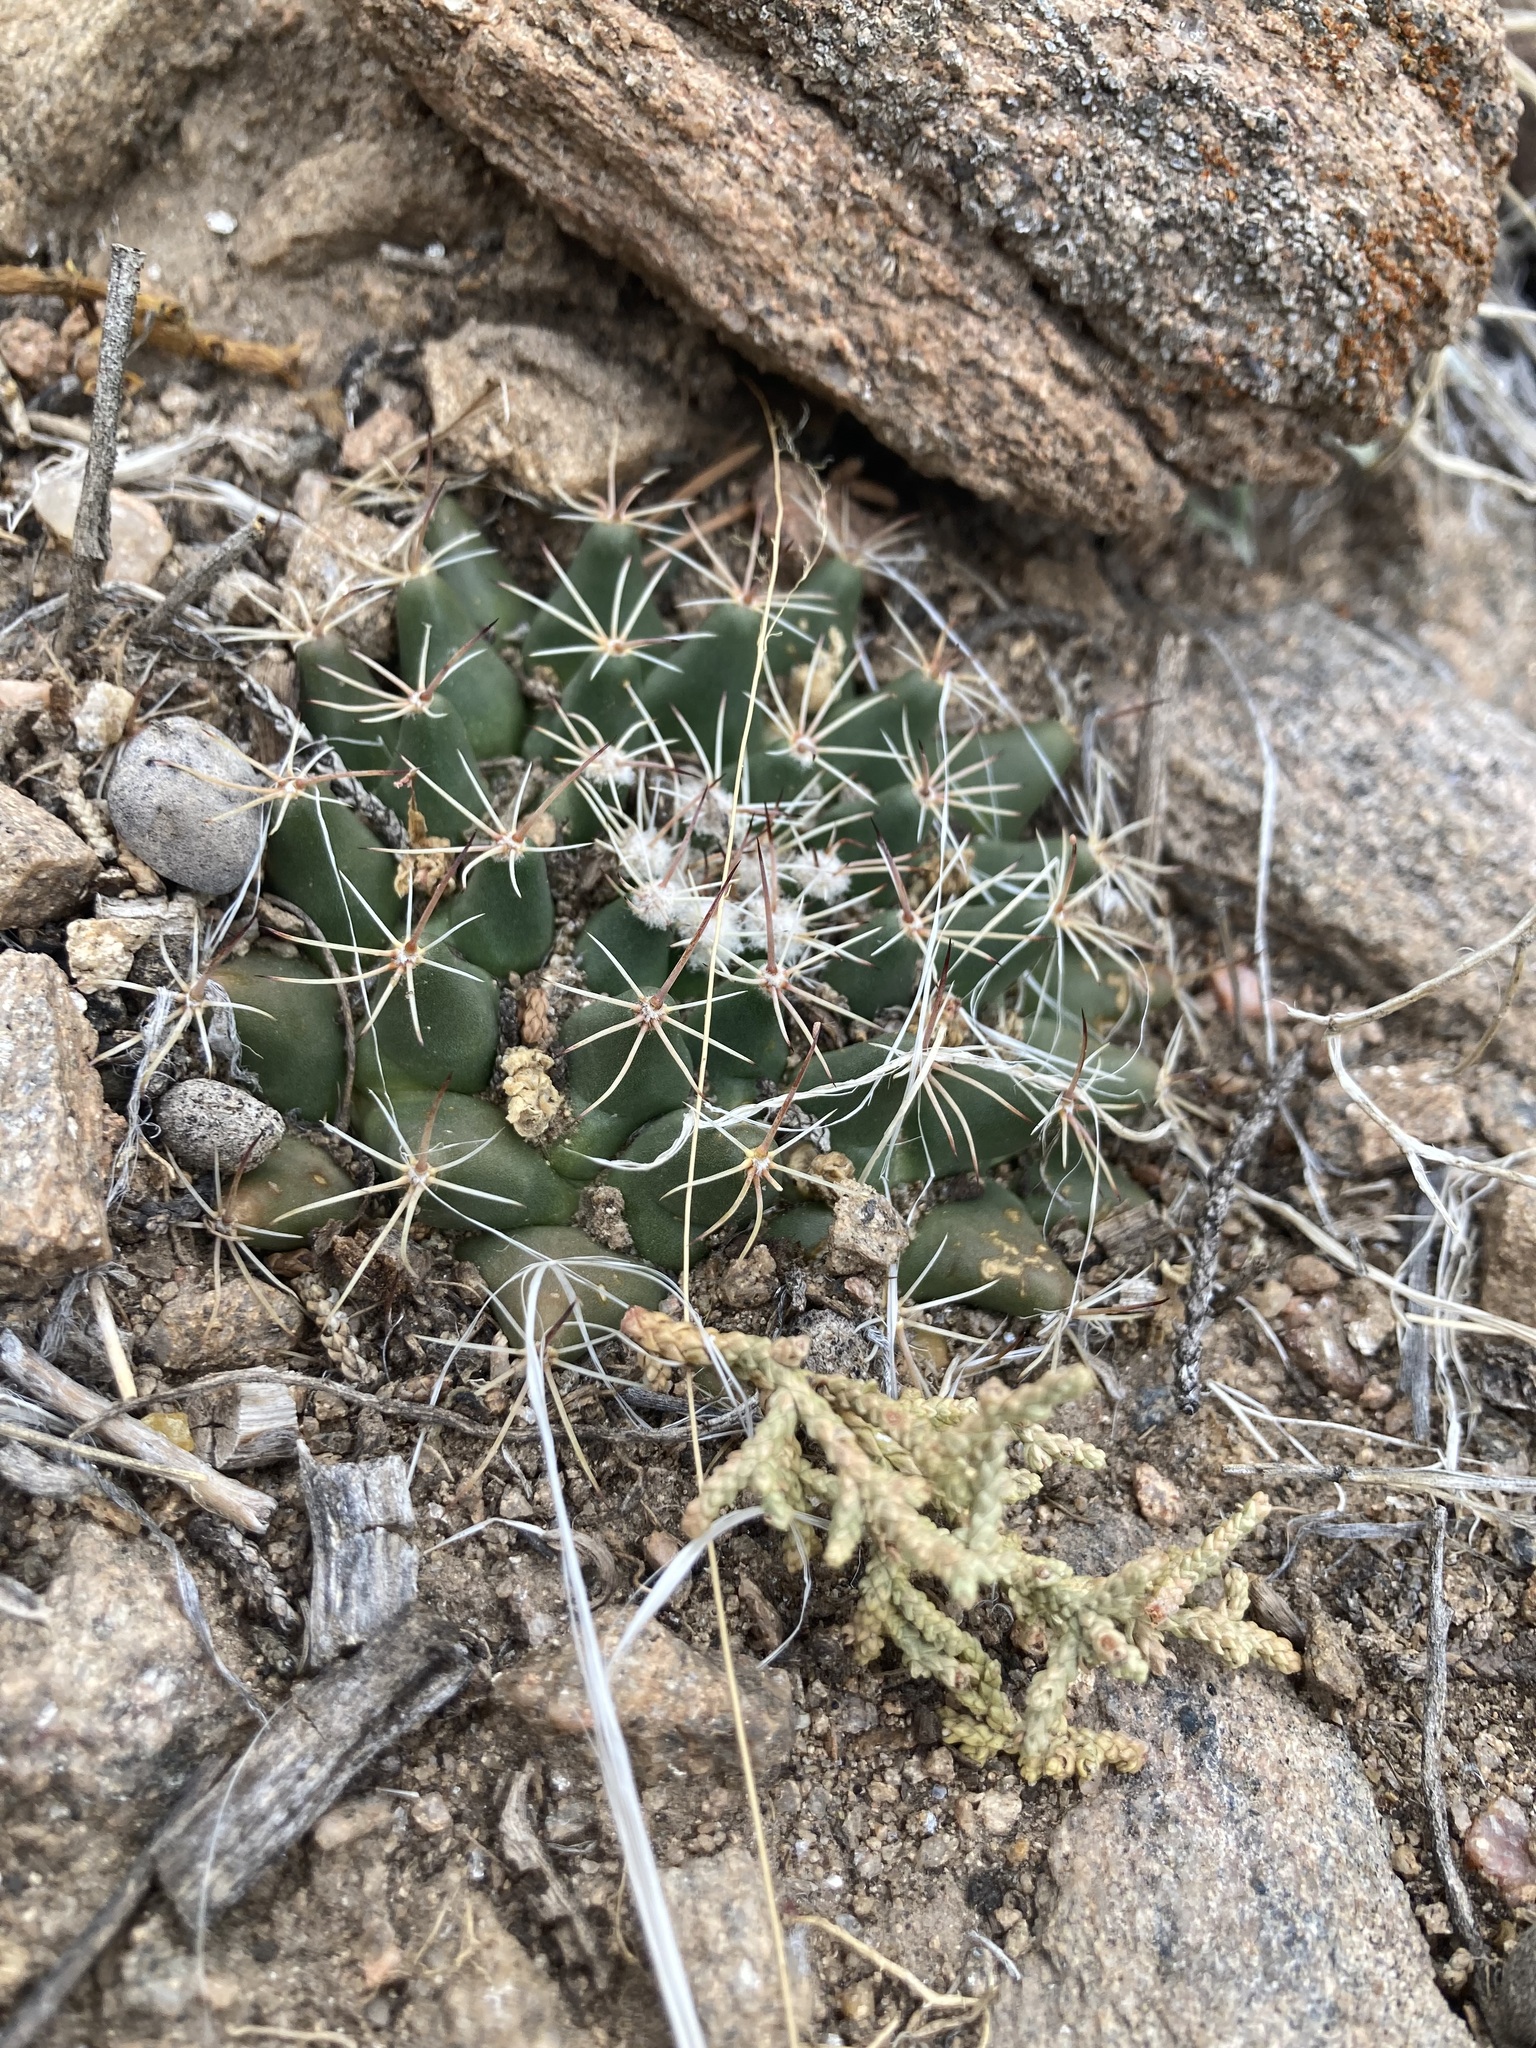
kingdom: Plantae
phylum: Tracheophyta
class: Magnoliopsida
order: Caryophyllales
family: Cactaceae
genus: Mammillaria
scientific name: Mammillaria heyderi
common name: Little nipple cactus
